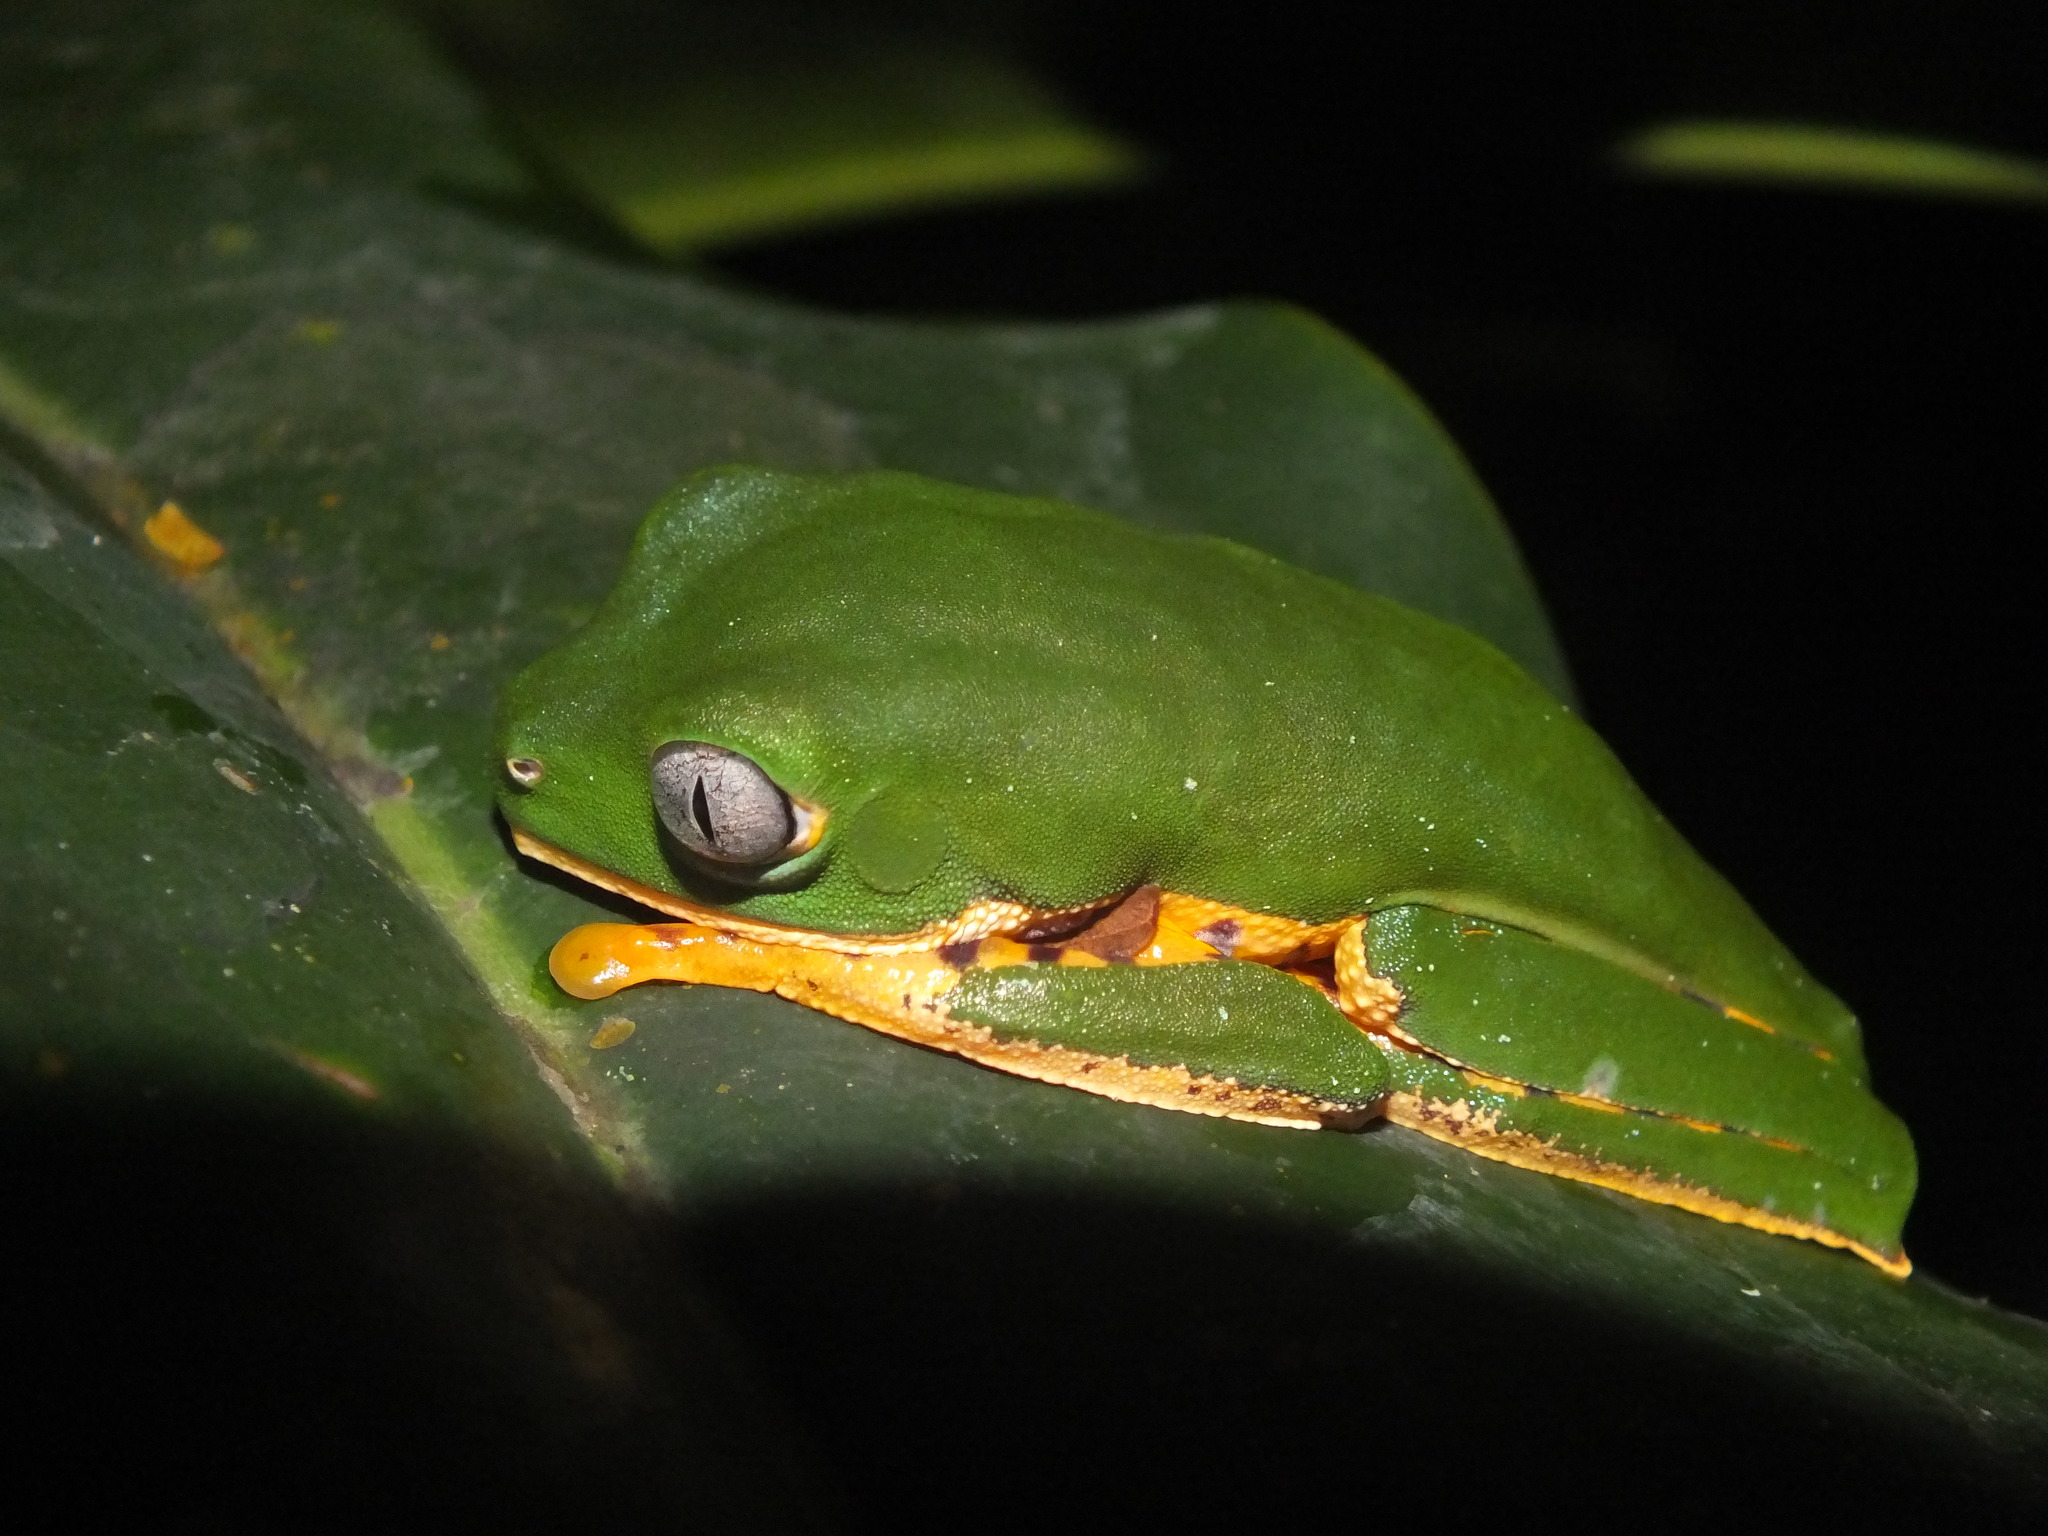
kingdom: Animalia
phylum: Chordata
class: Amphibia
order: Anura
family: Phyllomedusidae
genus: Callimedusa
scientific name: Callimedusa tomopterna
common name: Tiger-striped leaf frog
